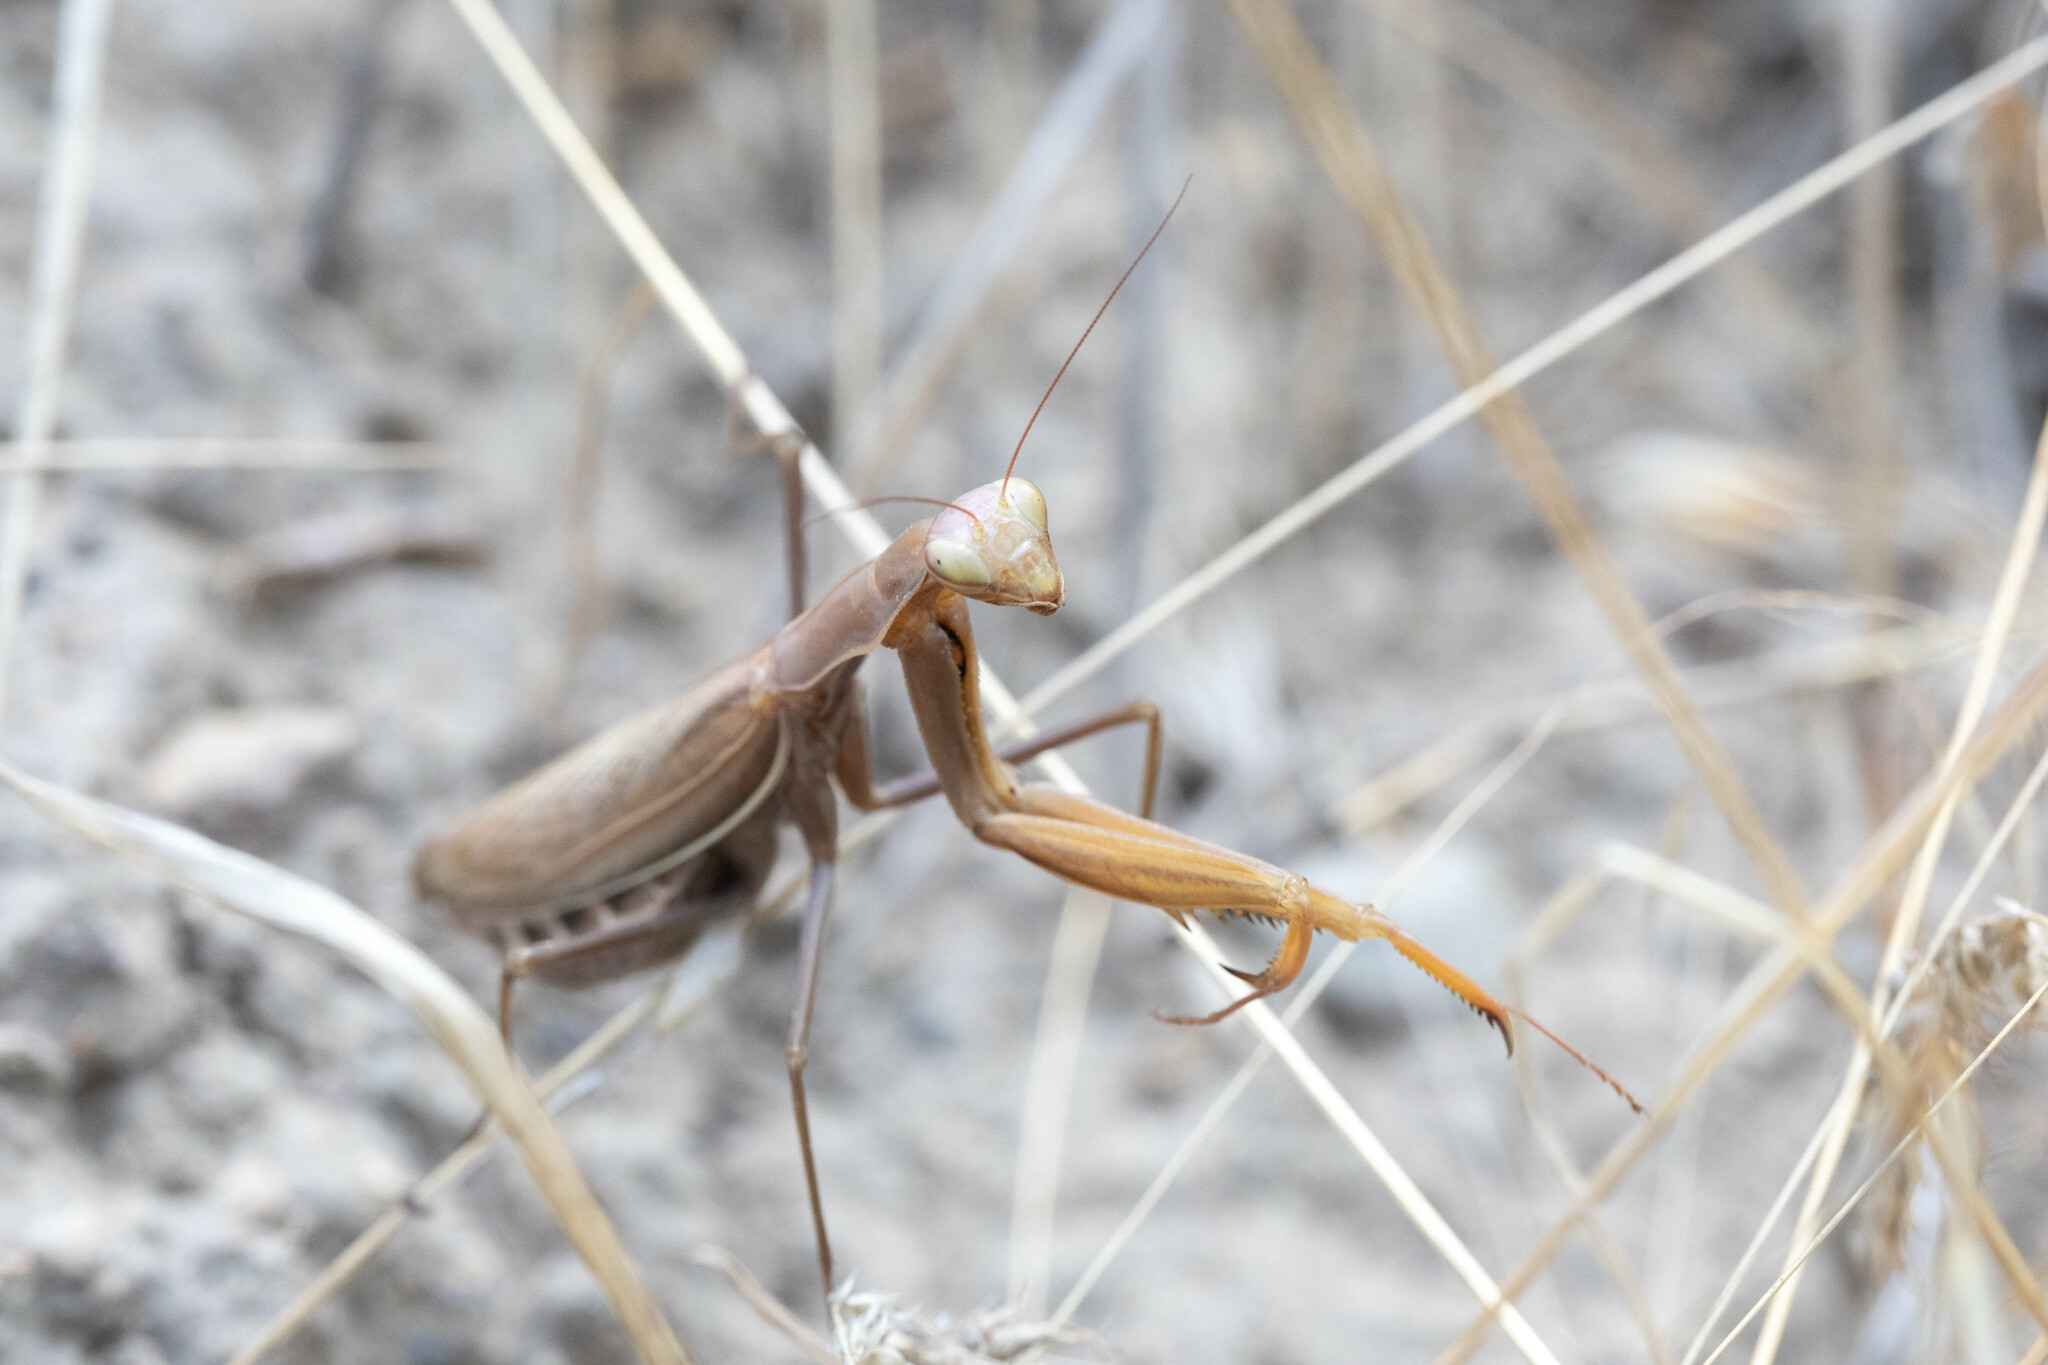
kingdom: Animalia
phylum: Arthropoda
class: Insecta
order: Mantodea
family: Mantidae
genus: Mantis
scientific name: Mantis religiosa
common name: Praying mantis
